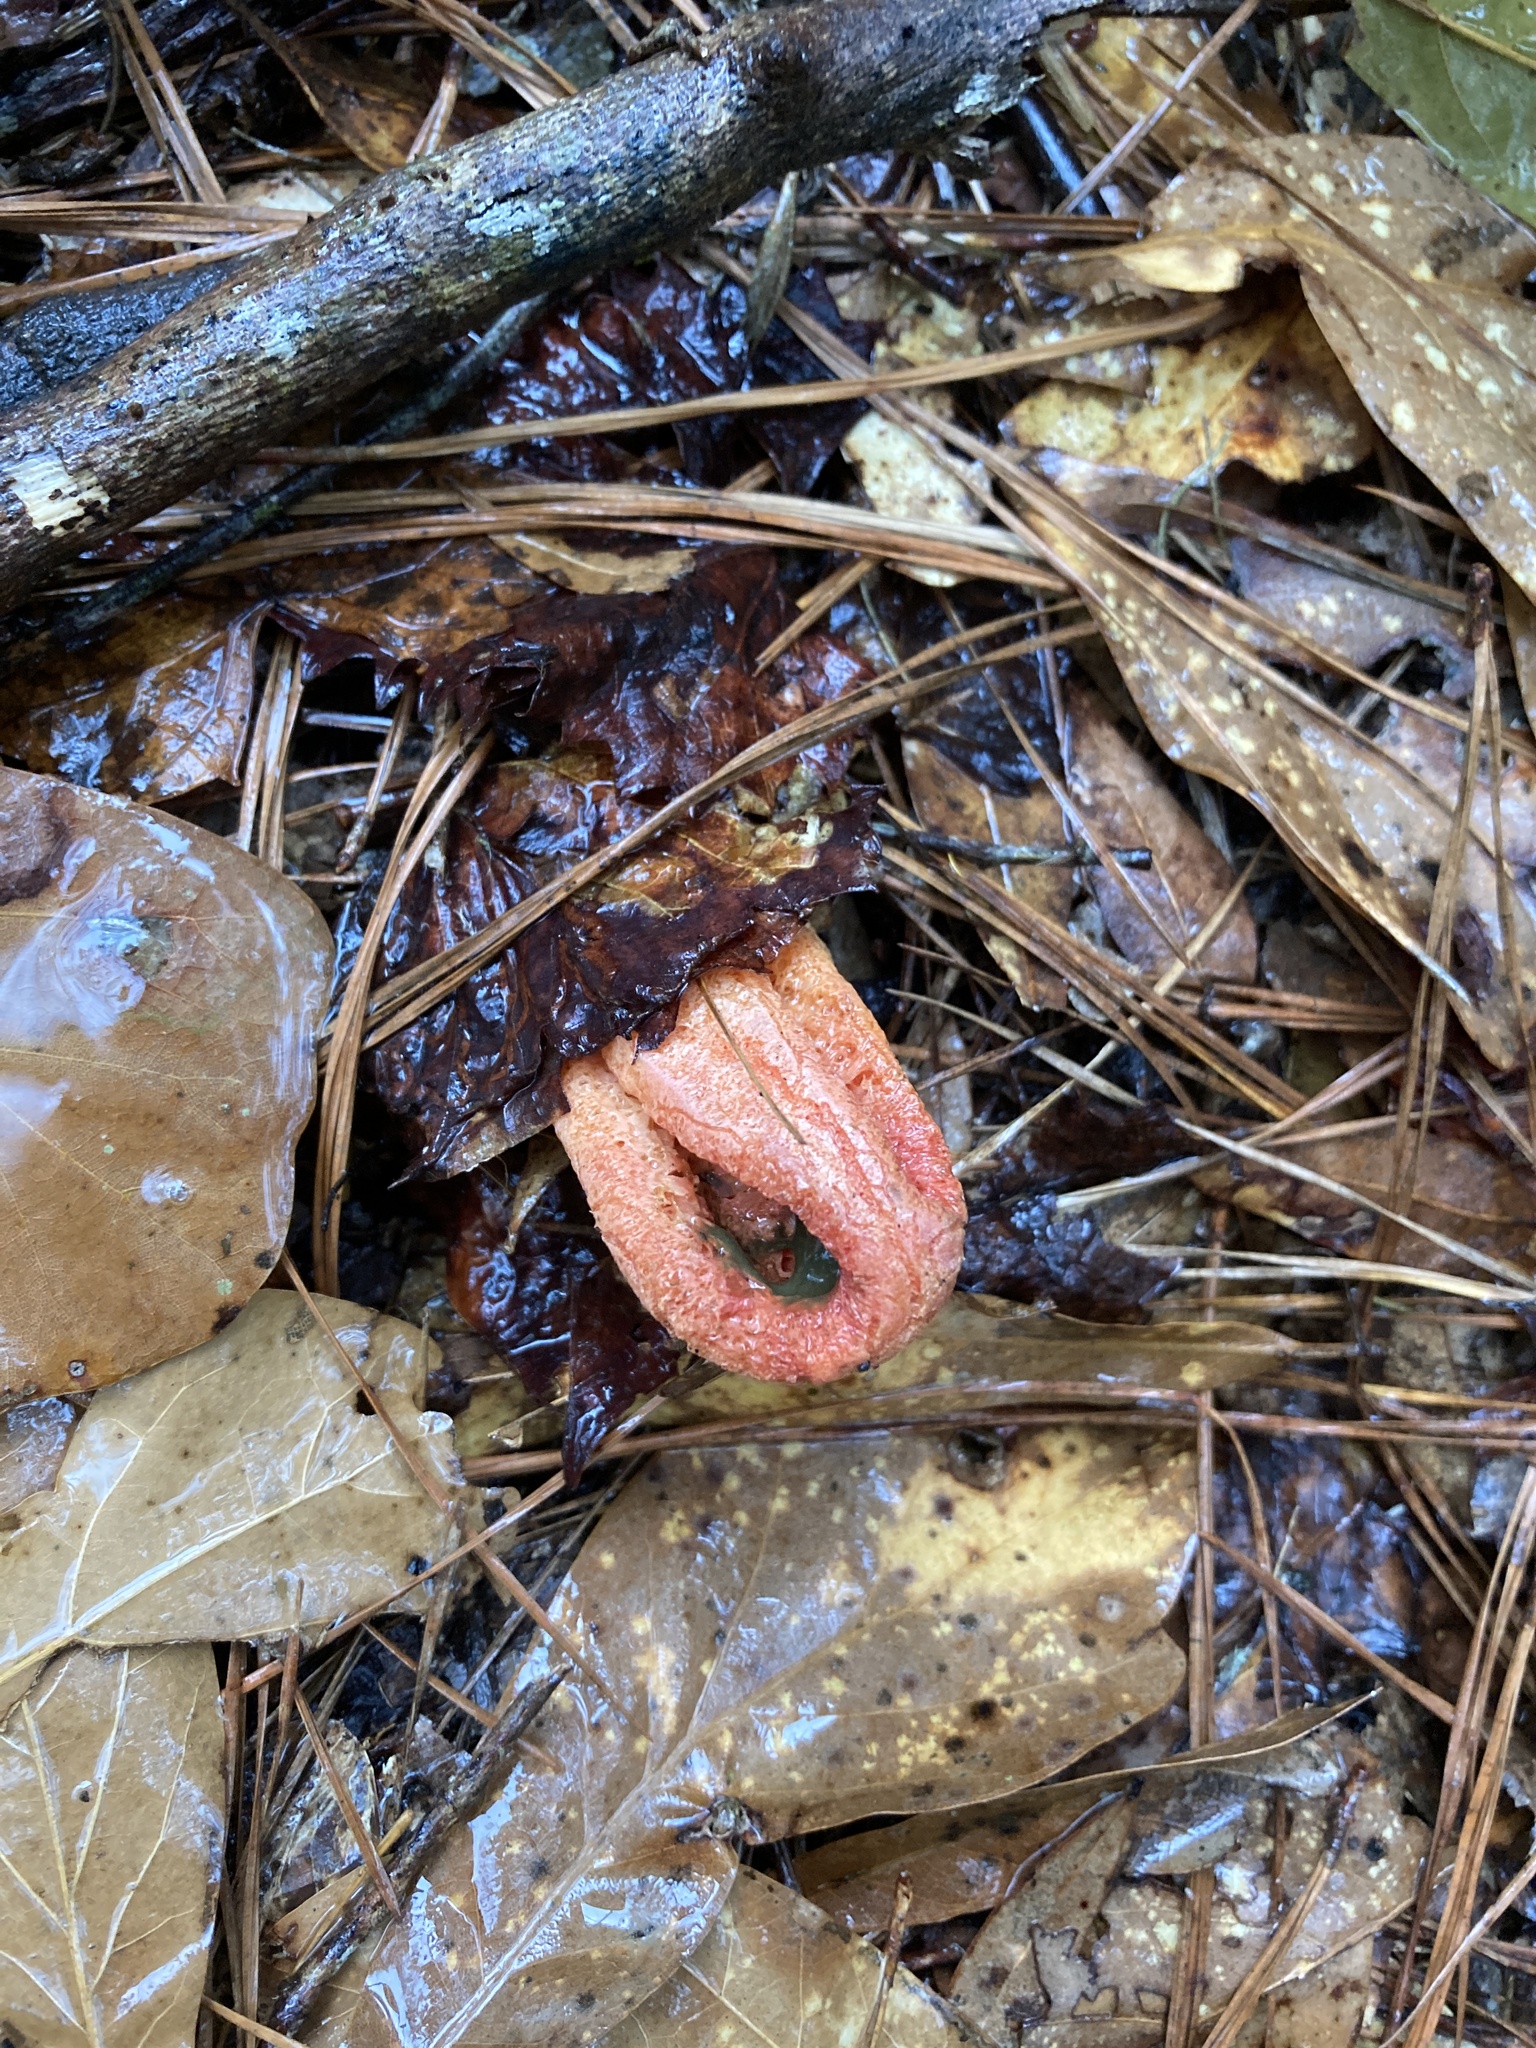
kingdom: Fungi
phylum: Basidiomycota
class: Agaricomycetes
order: Phallales
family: Phallaceae
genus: Clathrus
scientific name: Clathrus columnatus
